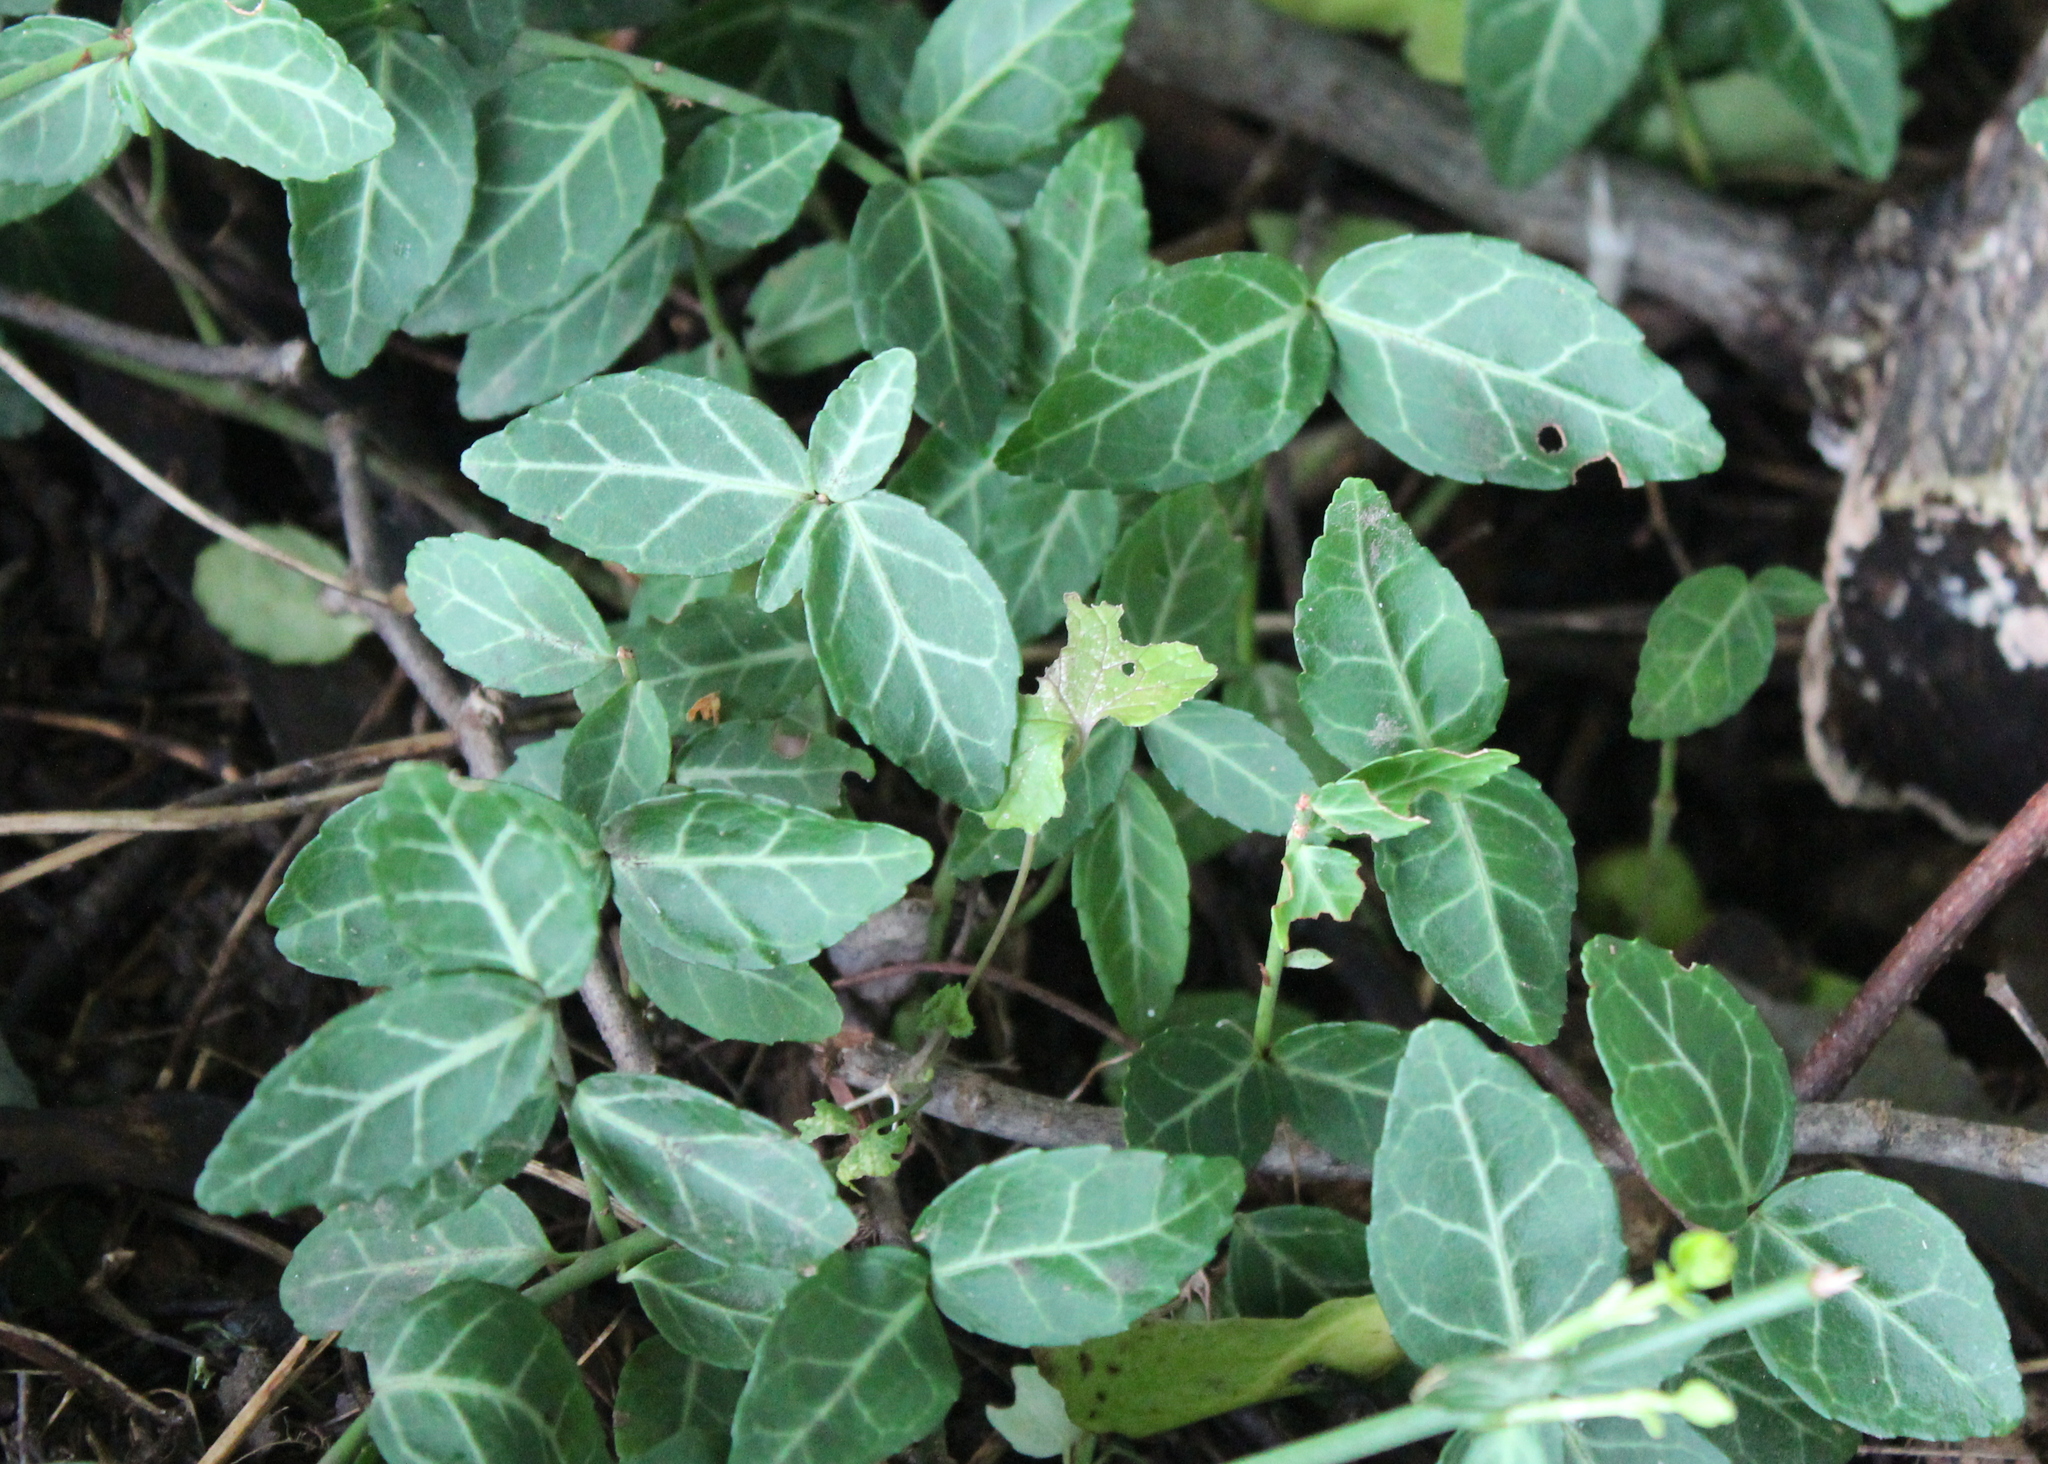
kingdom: Plantae
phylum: Tracheophyta
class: Magnoliopsida
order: Celastrales
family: Celastraceae
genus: Euonymus
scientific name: Euonymus fortunei
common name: Climbing euonymus
